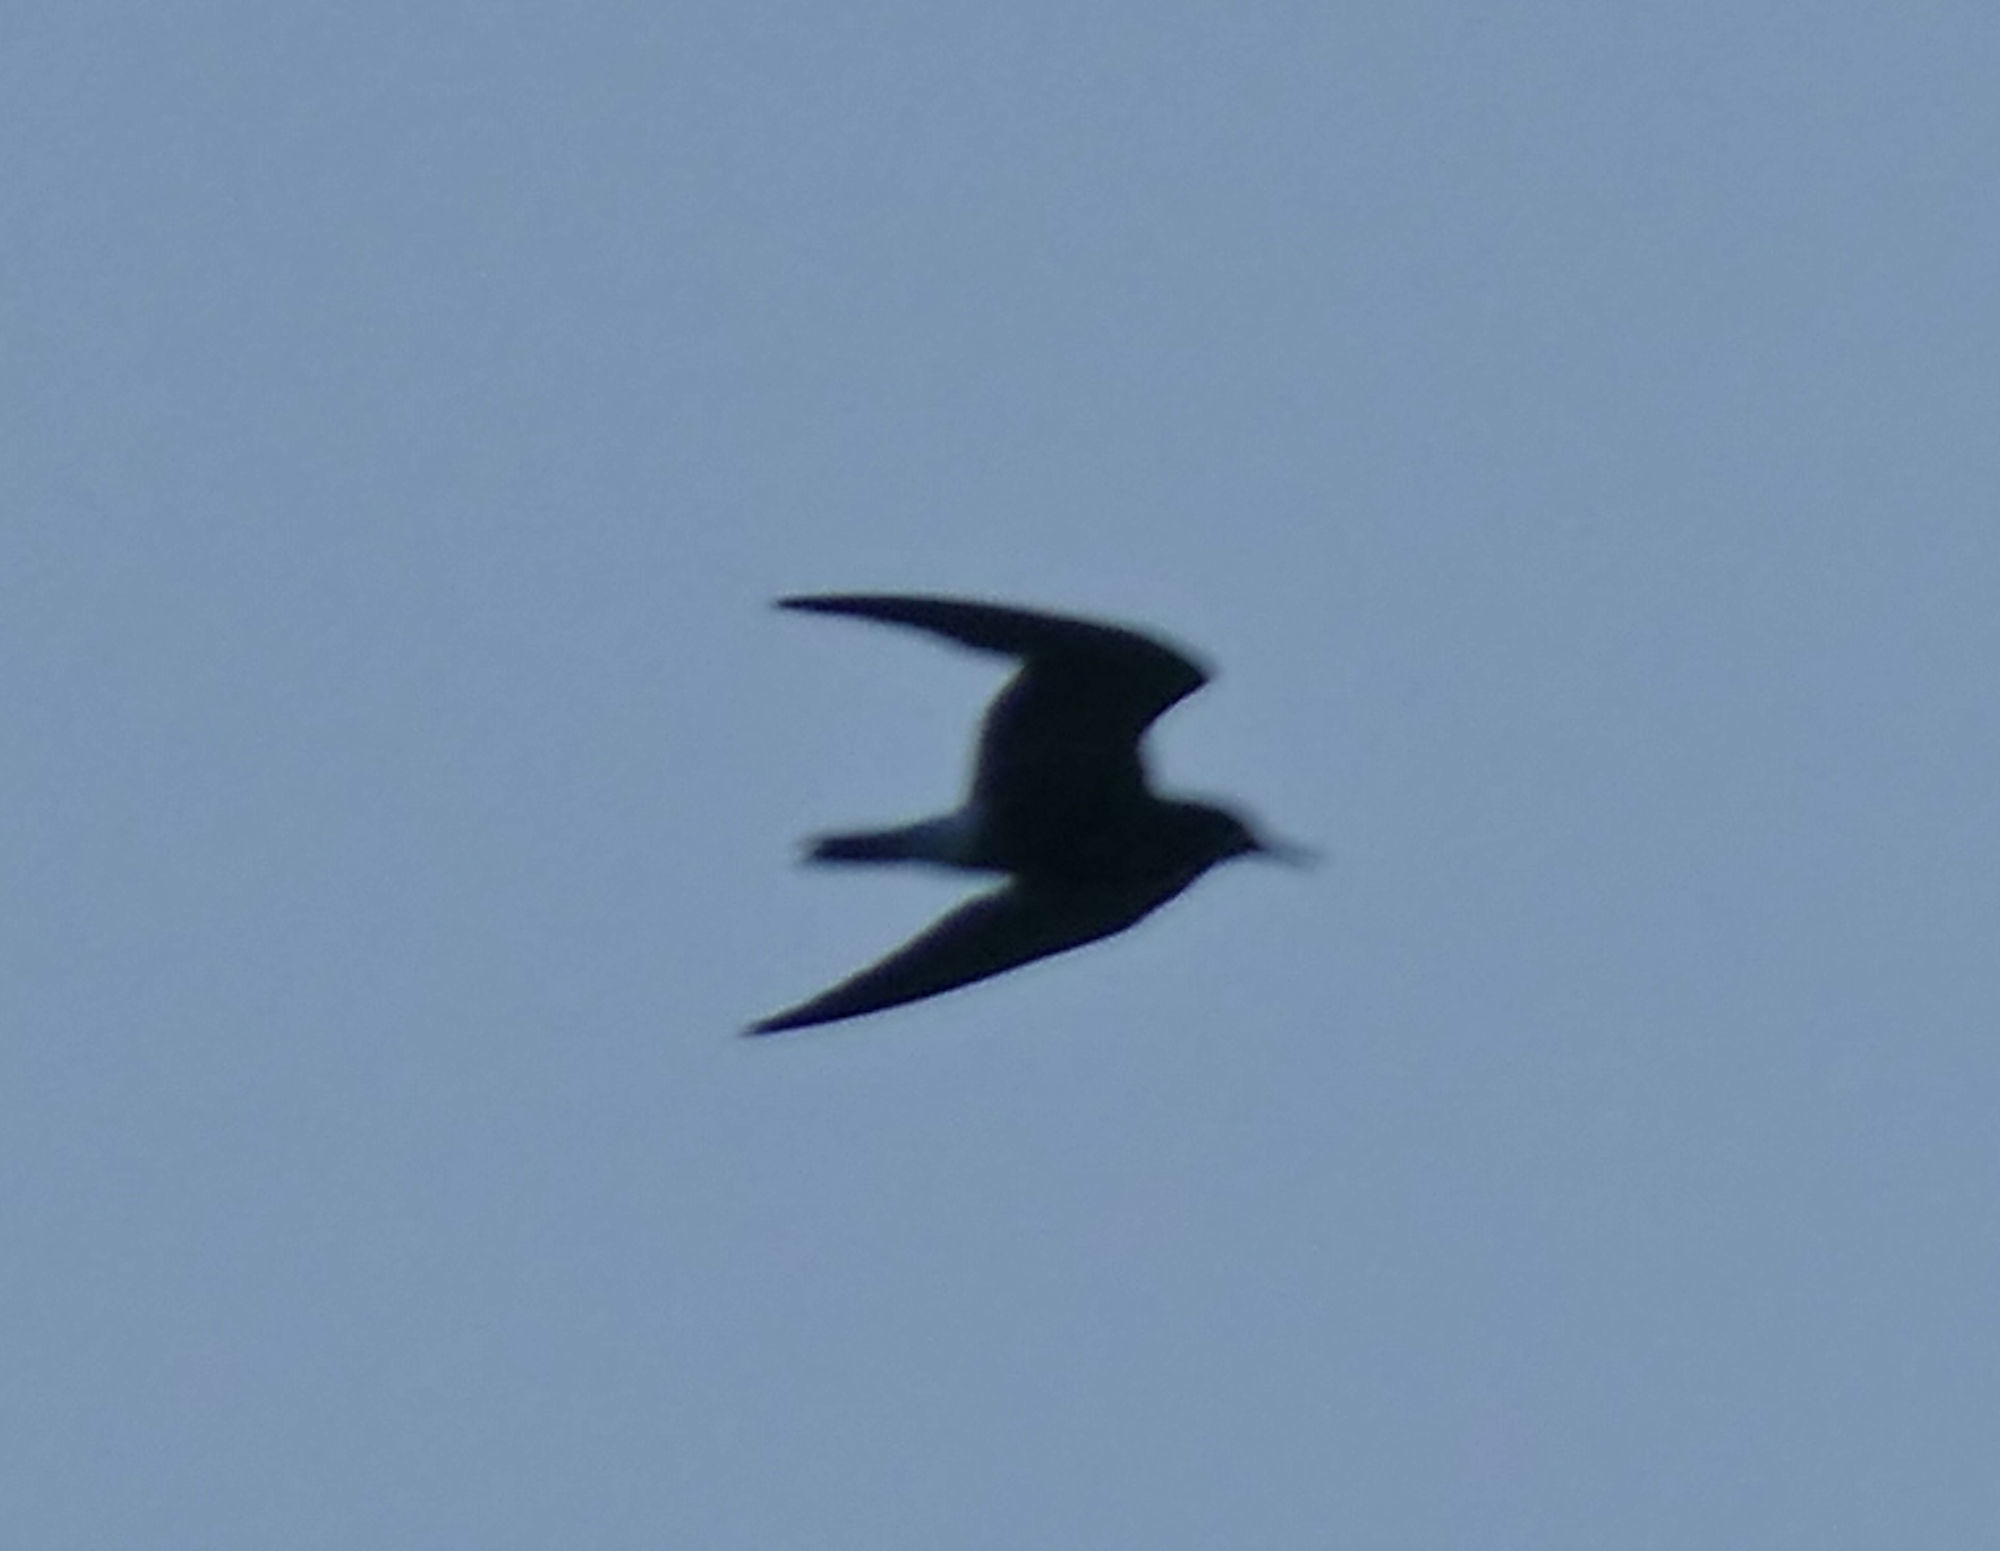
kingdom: Animalia
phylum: Chordata
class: Aves
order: Charadriiformes
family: Laridae
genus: Chlidonias
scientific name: Chlidonias niger
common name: Black tern
